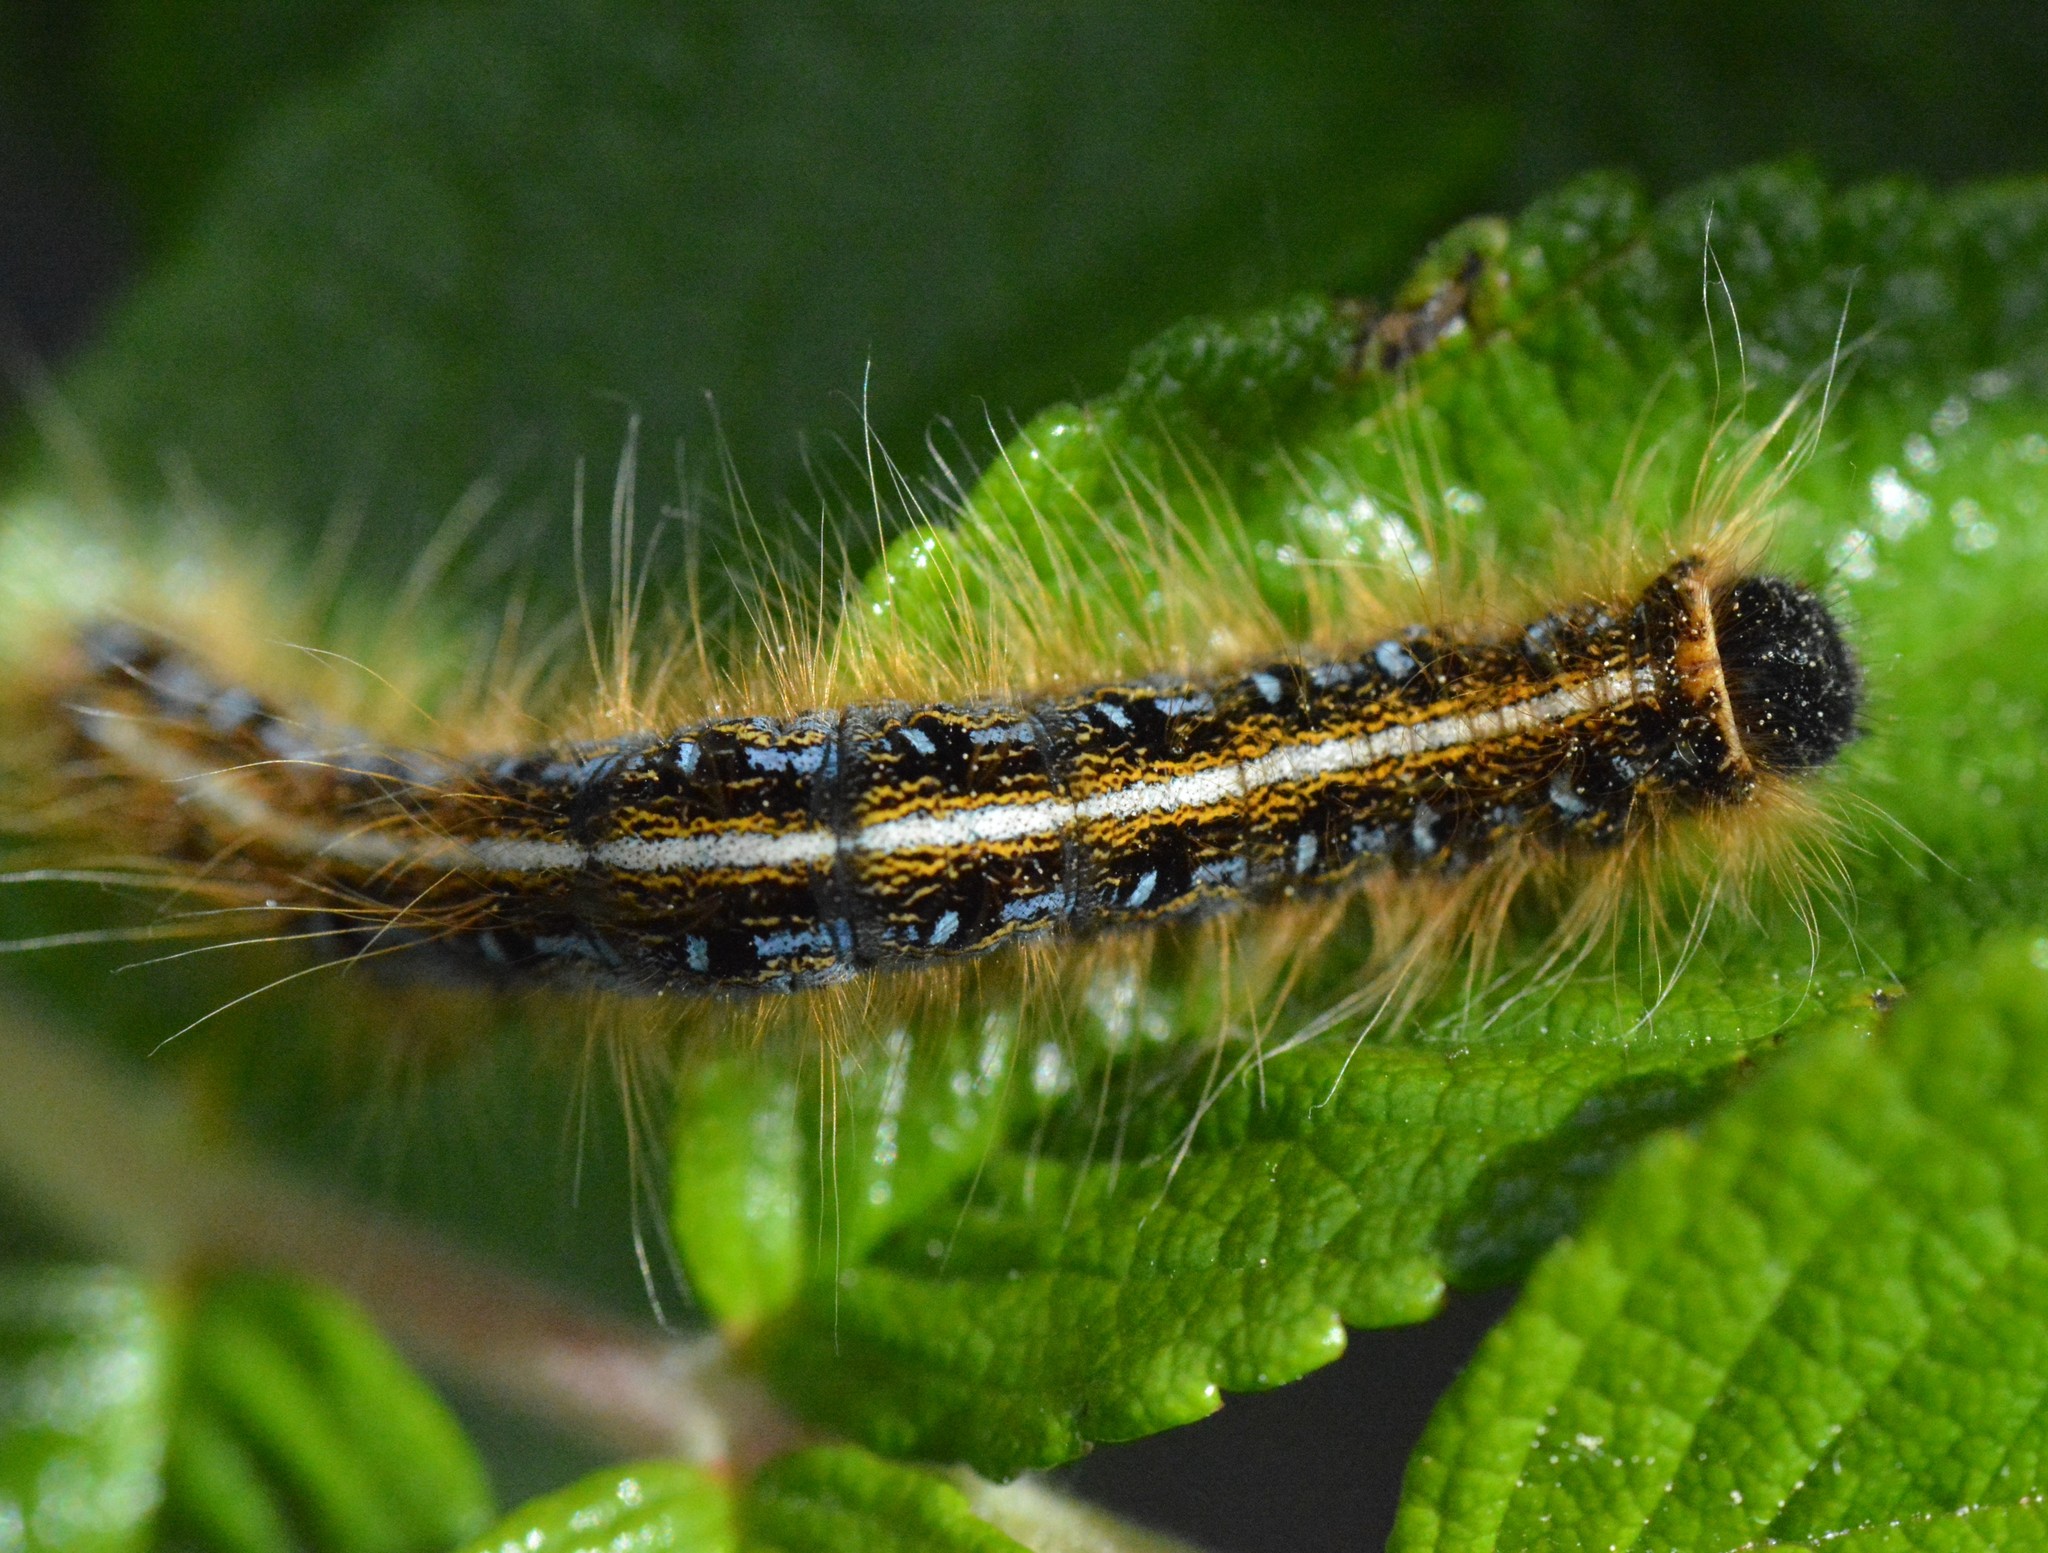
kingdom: Animalia
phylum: Arthropoda
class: Insecta
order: Lepidoptera
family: Lasiocampidae
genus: Malacosoma
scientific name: Malacosoma americana
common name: Eastern tent caterpillar moth
